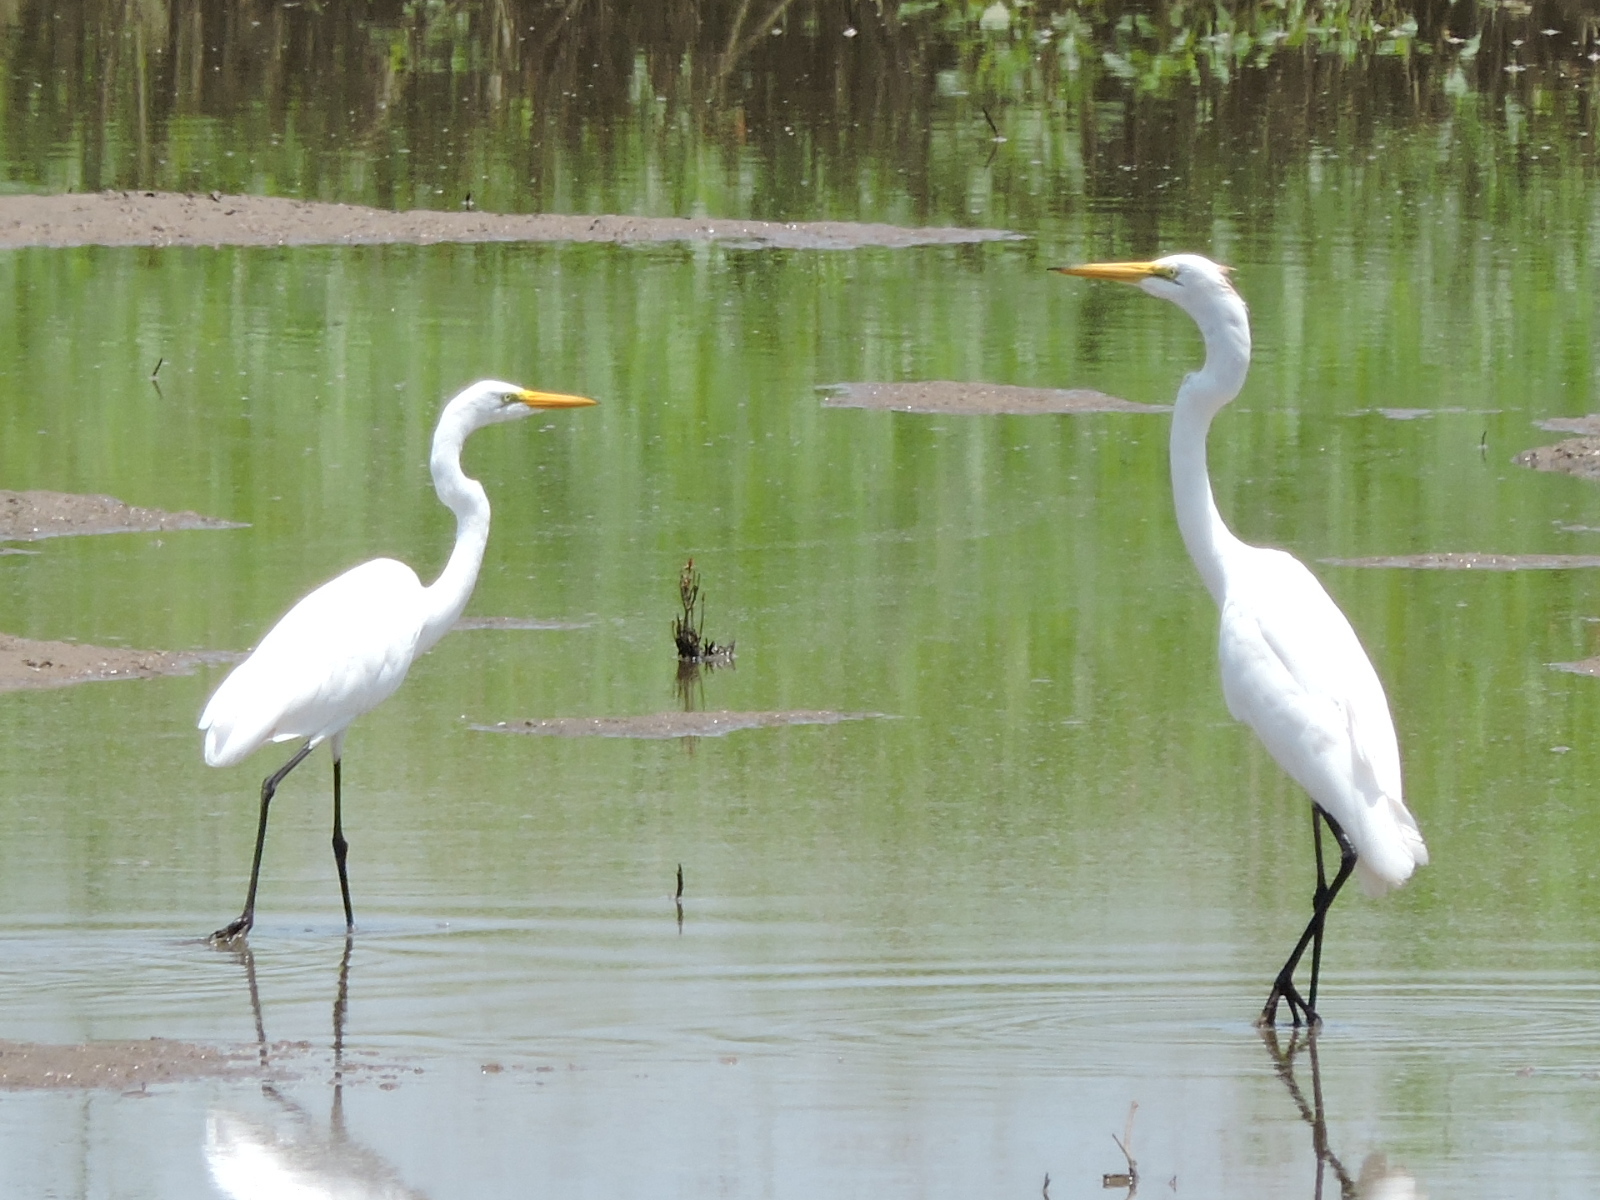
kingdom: Animalia
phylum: Chordata
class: Aves
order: Pelecaniformes
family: Ardeidae
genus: Ardea
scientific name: Ardea alba
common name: Great egret
